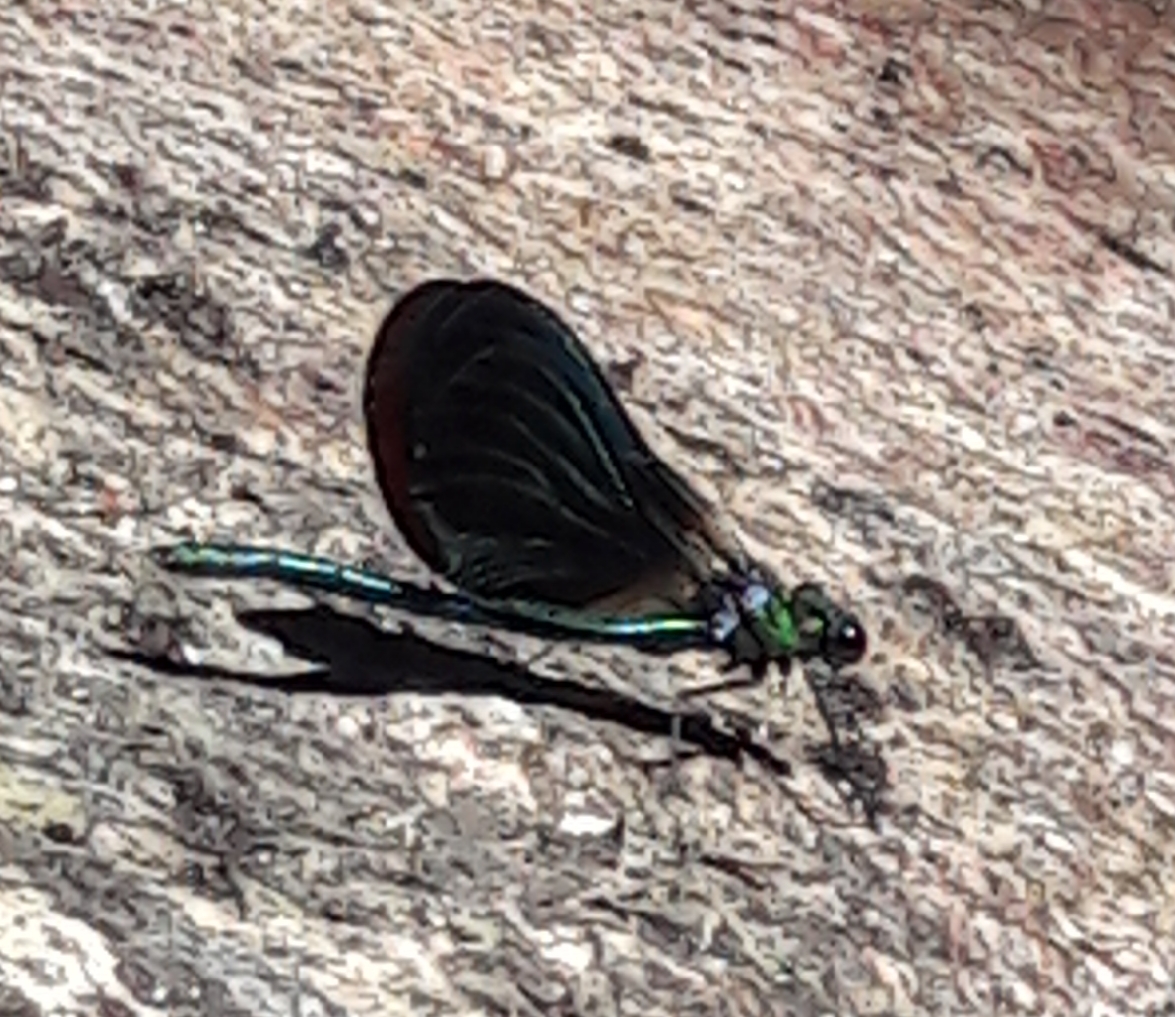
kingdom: Animalia
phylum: Arthropoda
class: Insecta
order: Odonata
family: Calopterygidae
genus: Calopteryx
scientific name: Calopteryx virgo
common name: Beautiful demoiselle
